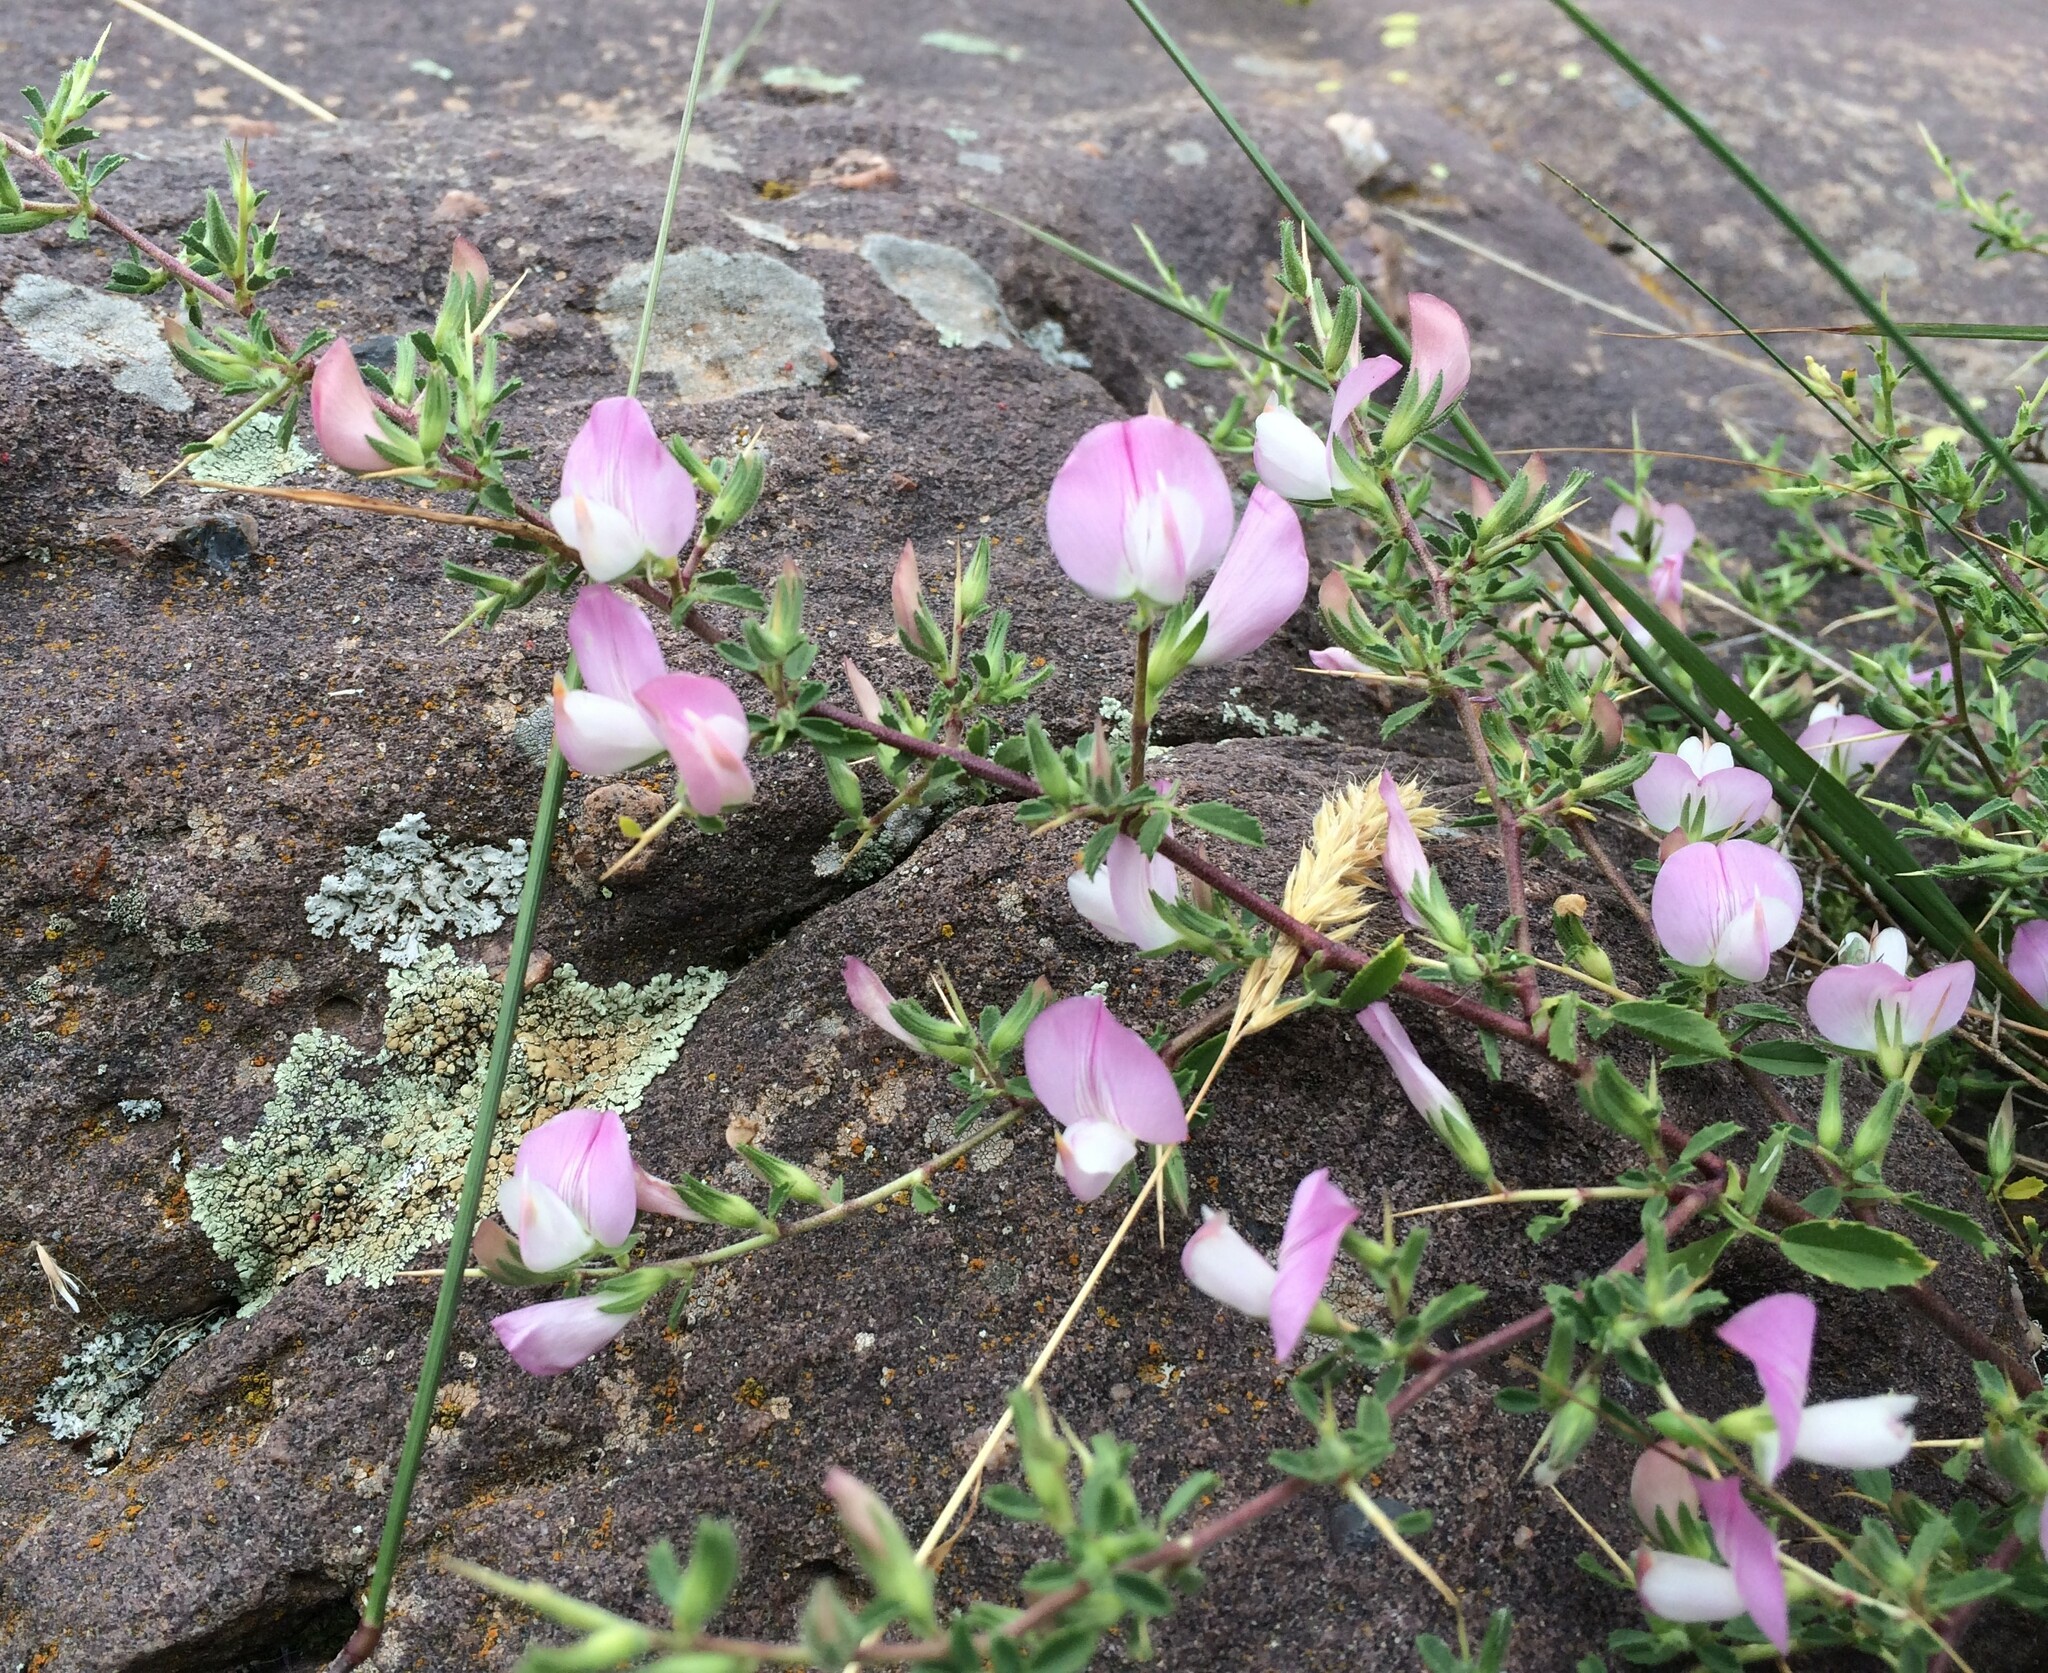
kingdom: Plantae
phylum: Tracheophyta
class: Magnoliopsida
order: Fabales
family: Fabaceae
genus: Ononis
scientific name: Ononis spinosa
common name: Spiny restharrow
